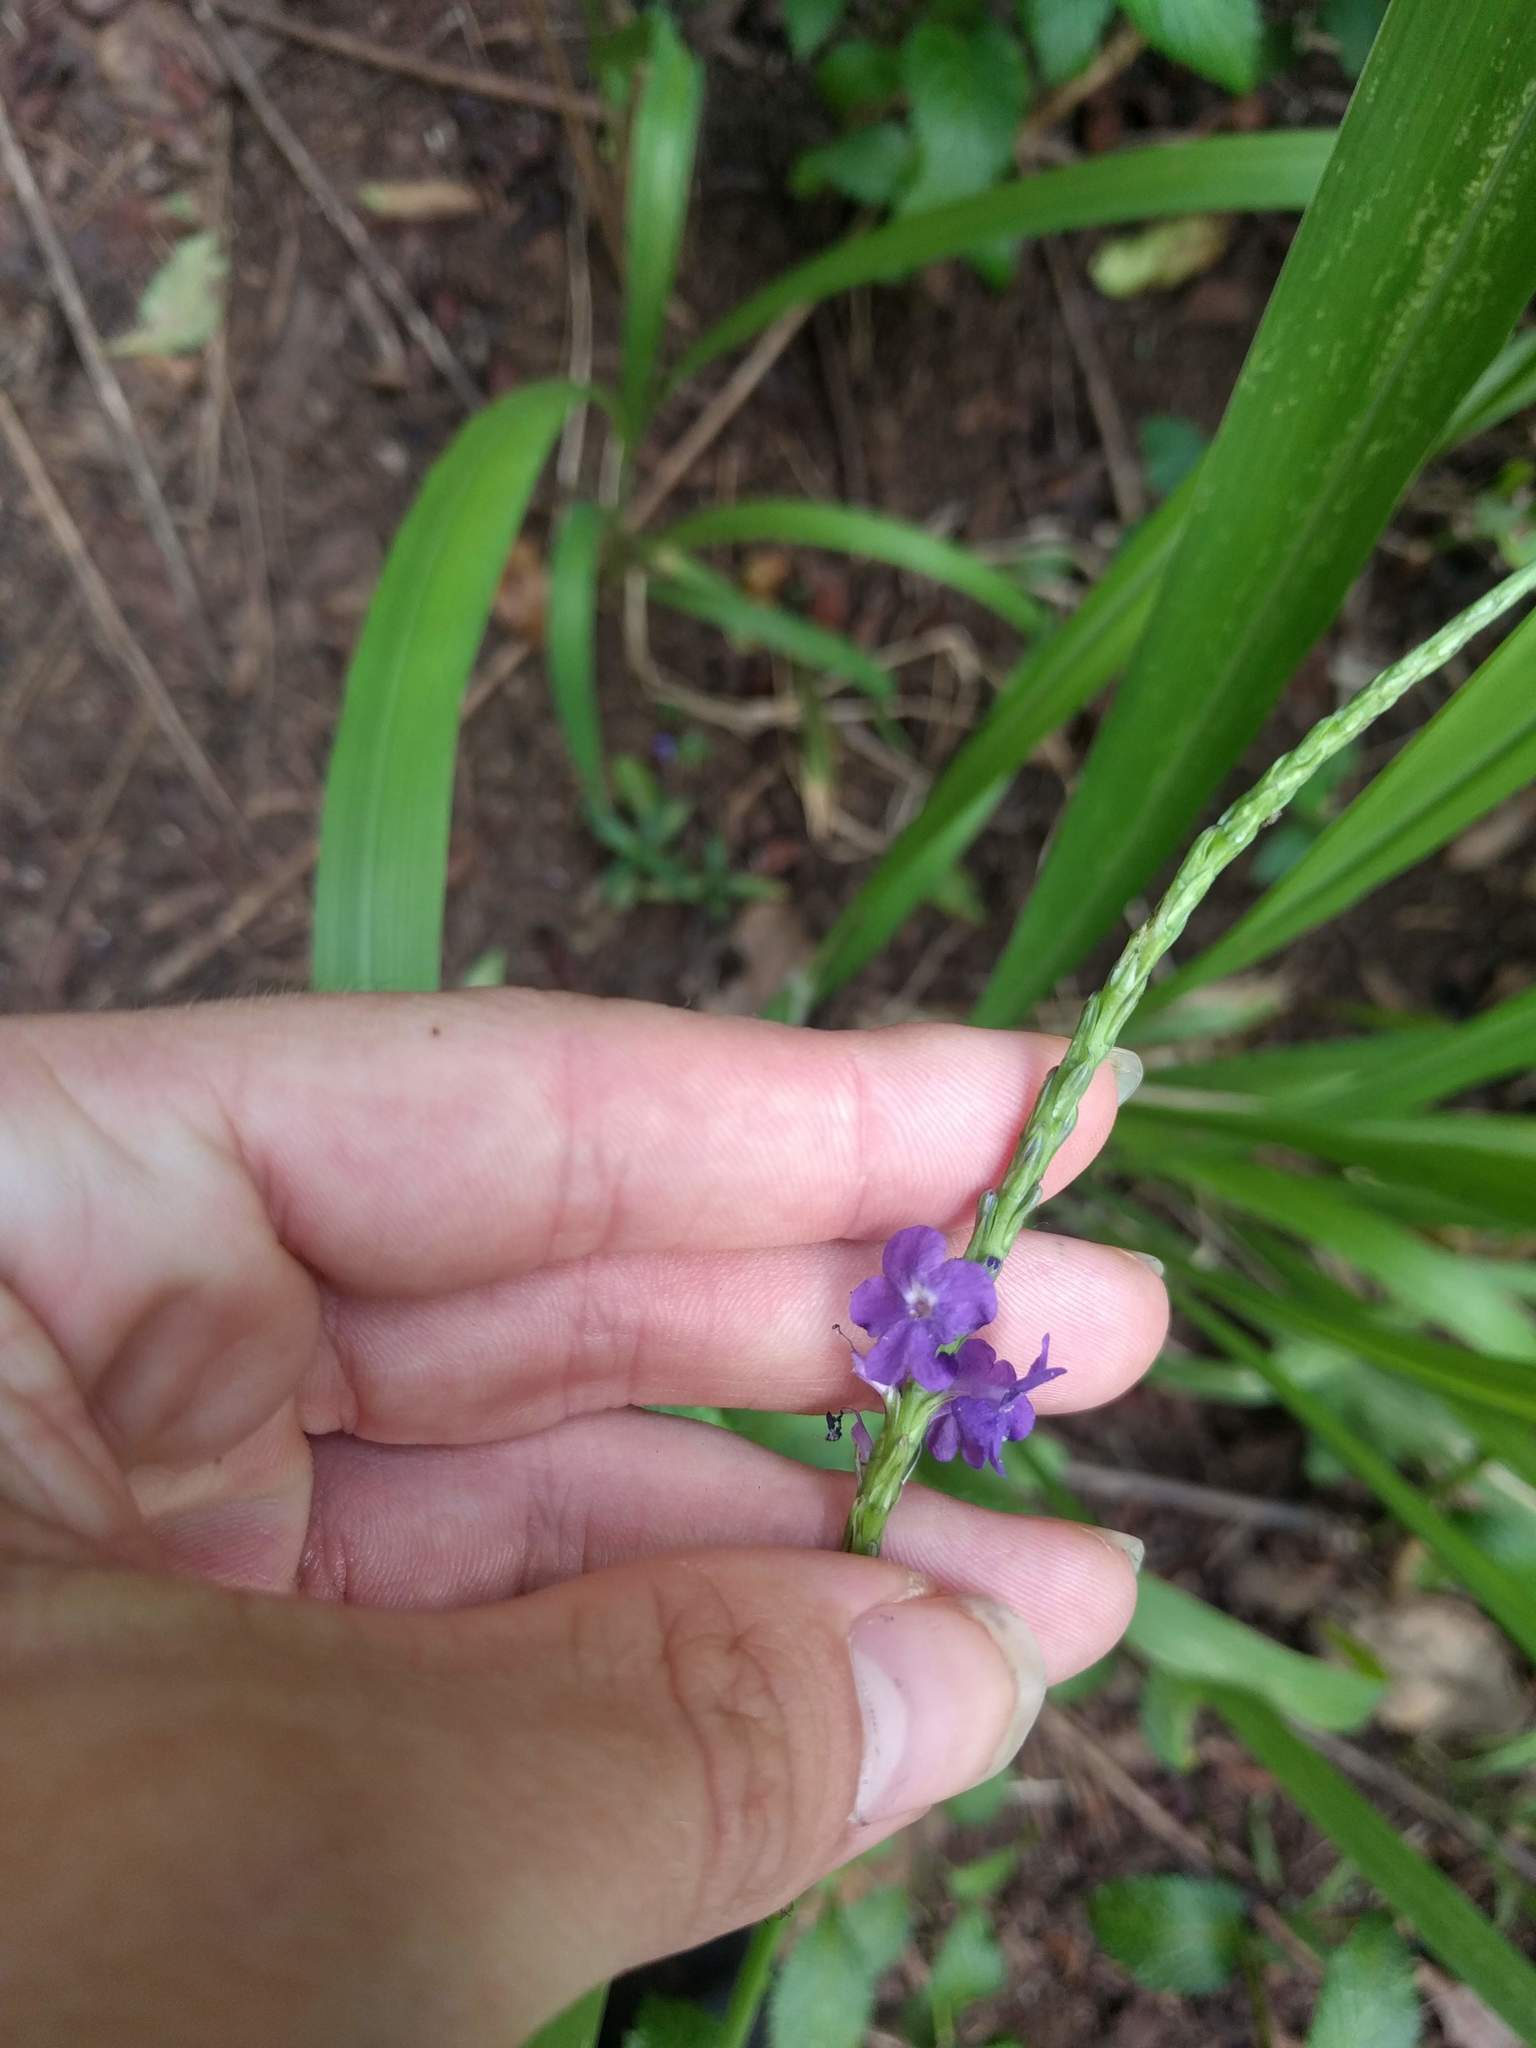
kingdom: Plantae
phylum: Tracheophyta
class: Magnoliopsida
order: Lamiales
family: Verbenaceae
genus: Stachytarpheta
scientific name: Stachytarpheta cayennensis
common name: Cayenne porterweed
